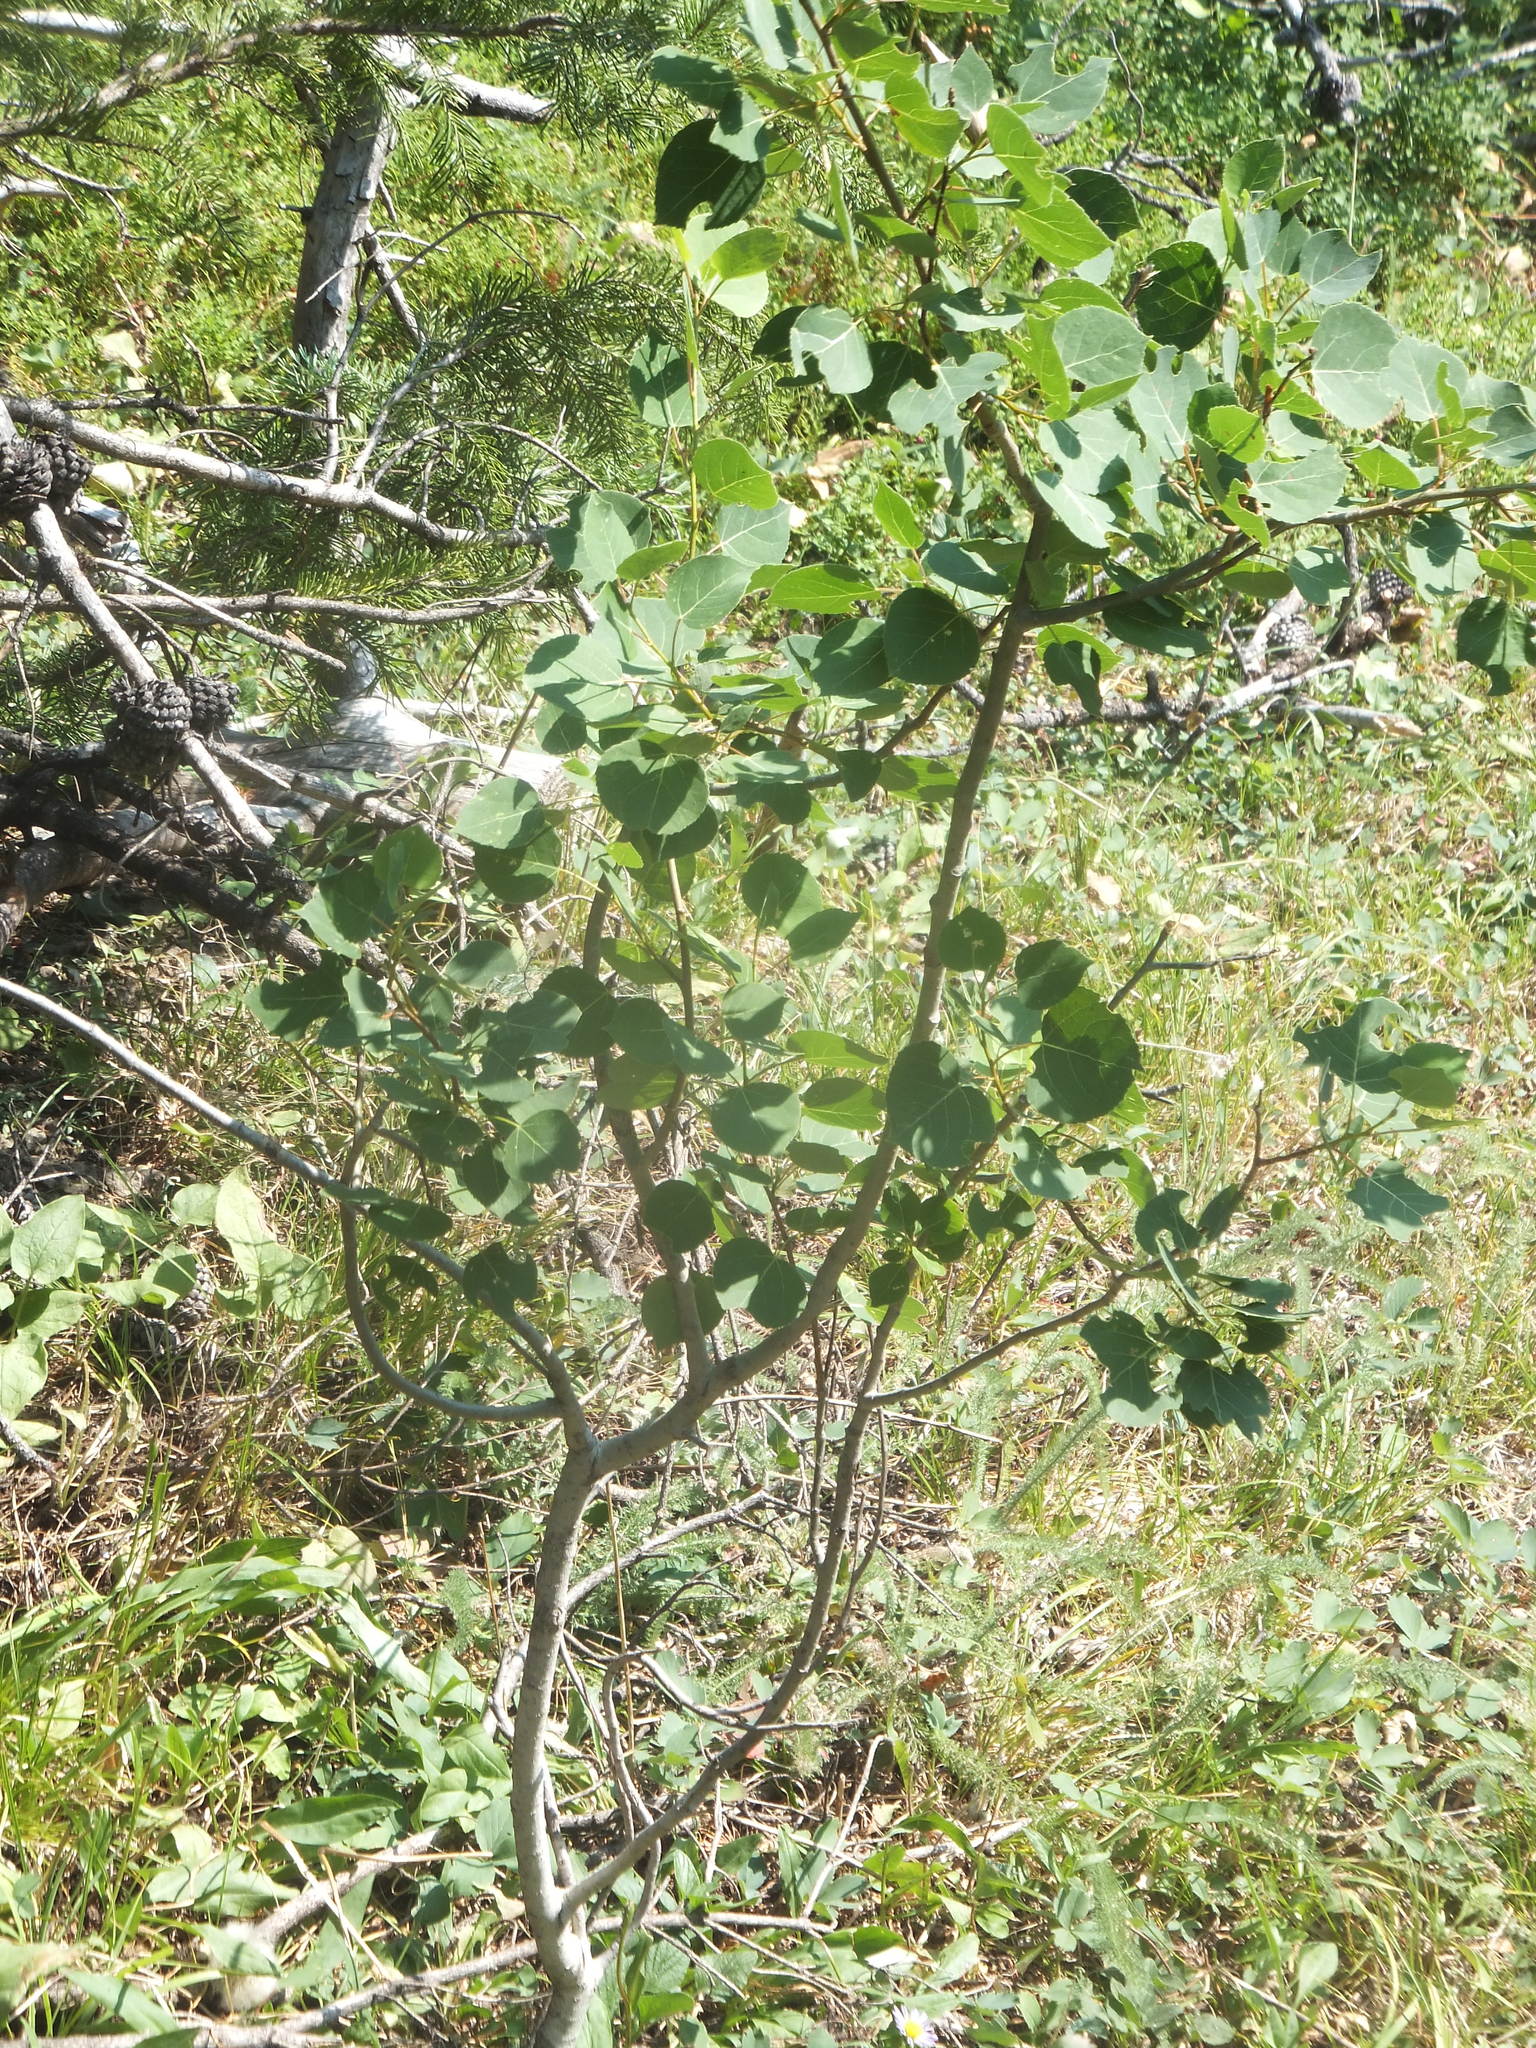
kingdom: Plantae
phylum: Tracheophyta
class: Magnoliopsida
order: Malpighiales
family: Salicaceae
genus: Populus
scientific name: Populus tremuloides
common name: Quaking aspen
